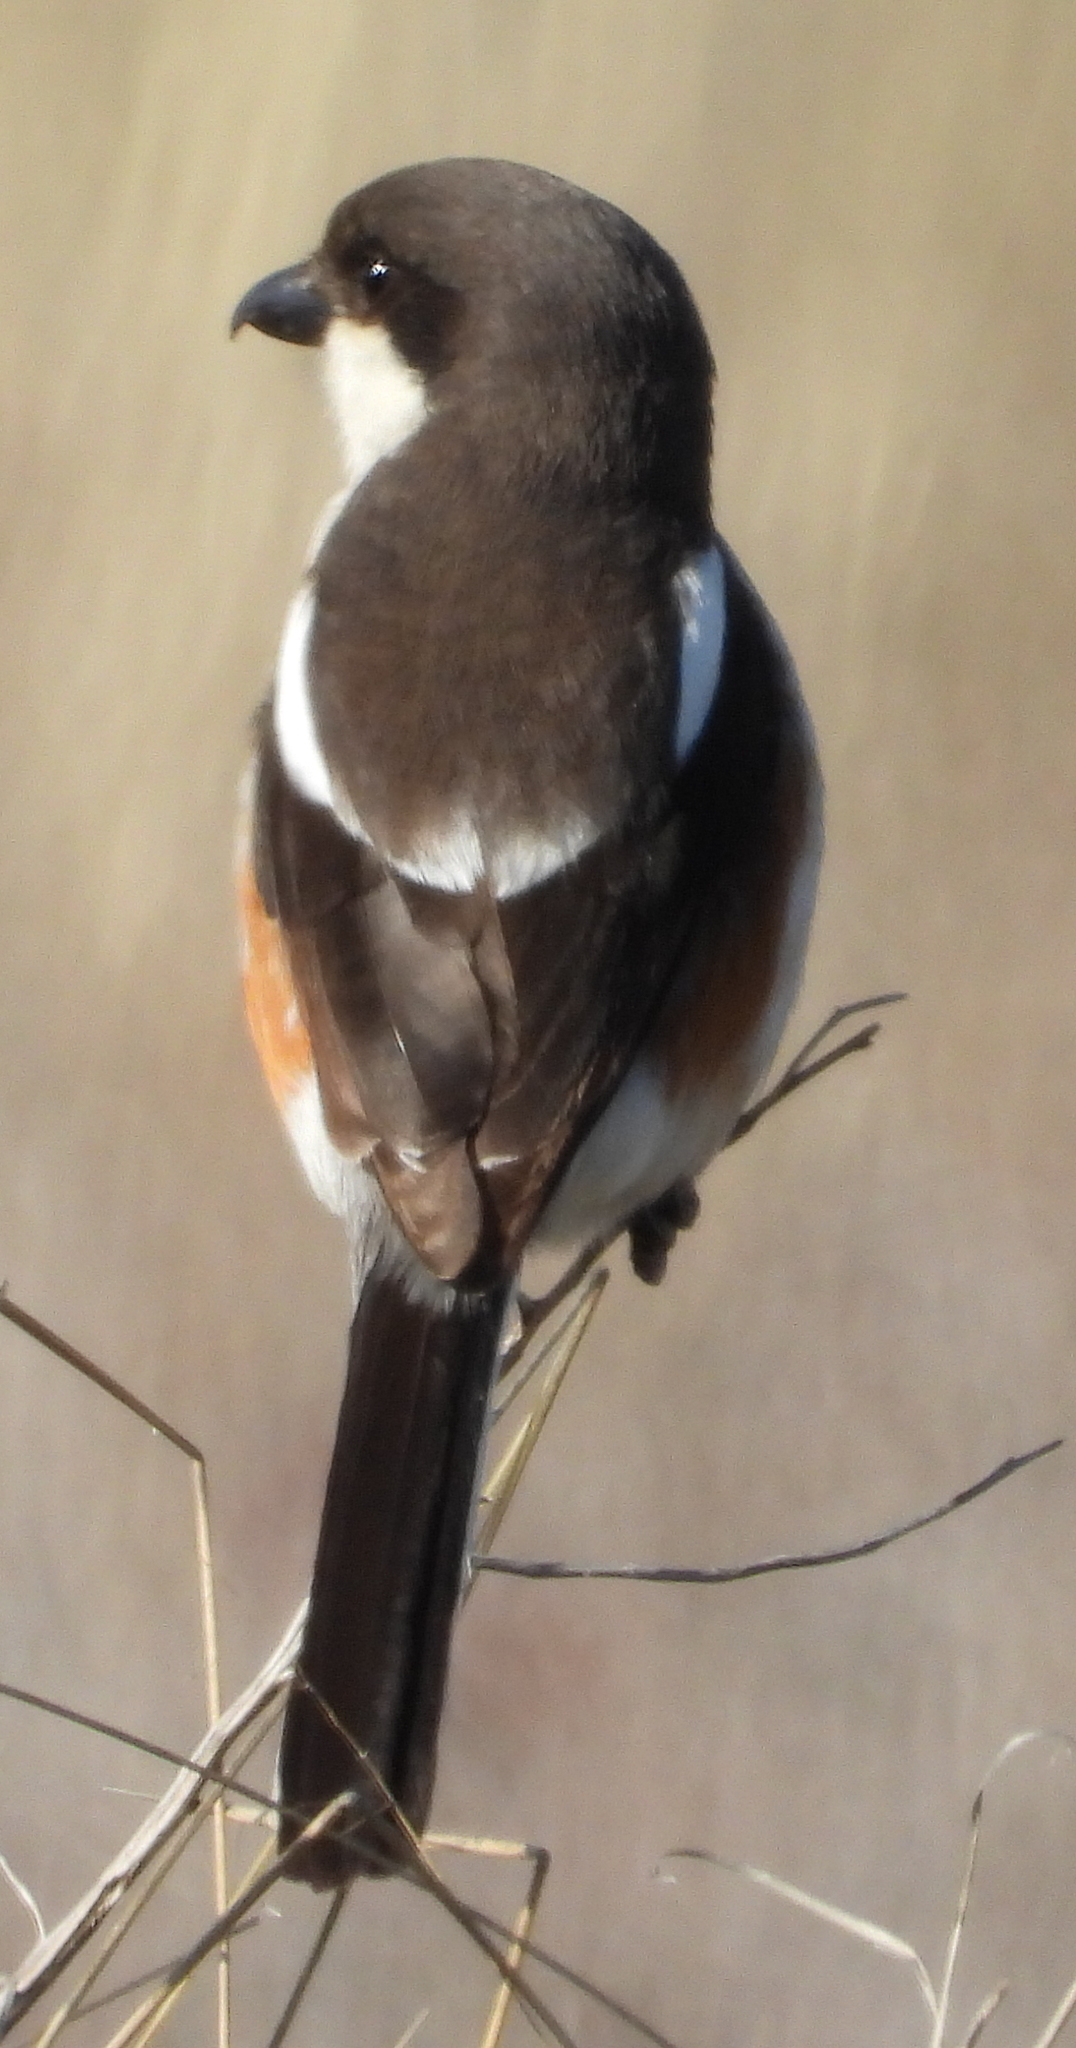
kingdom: Animalia
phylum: Chordata
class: Aves
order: Passeriformes
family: Laniidae
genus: Lanius
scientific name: Lanius collaris
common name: Southern fiscal
